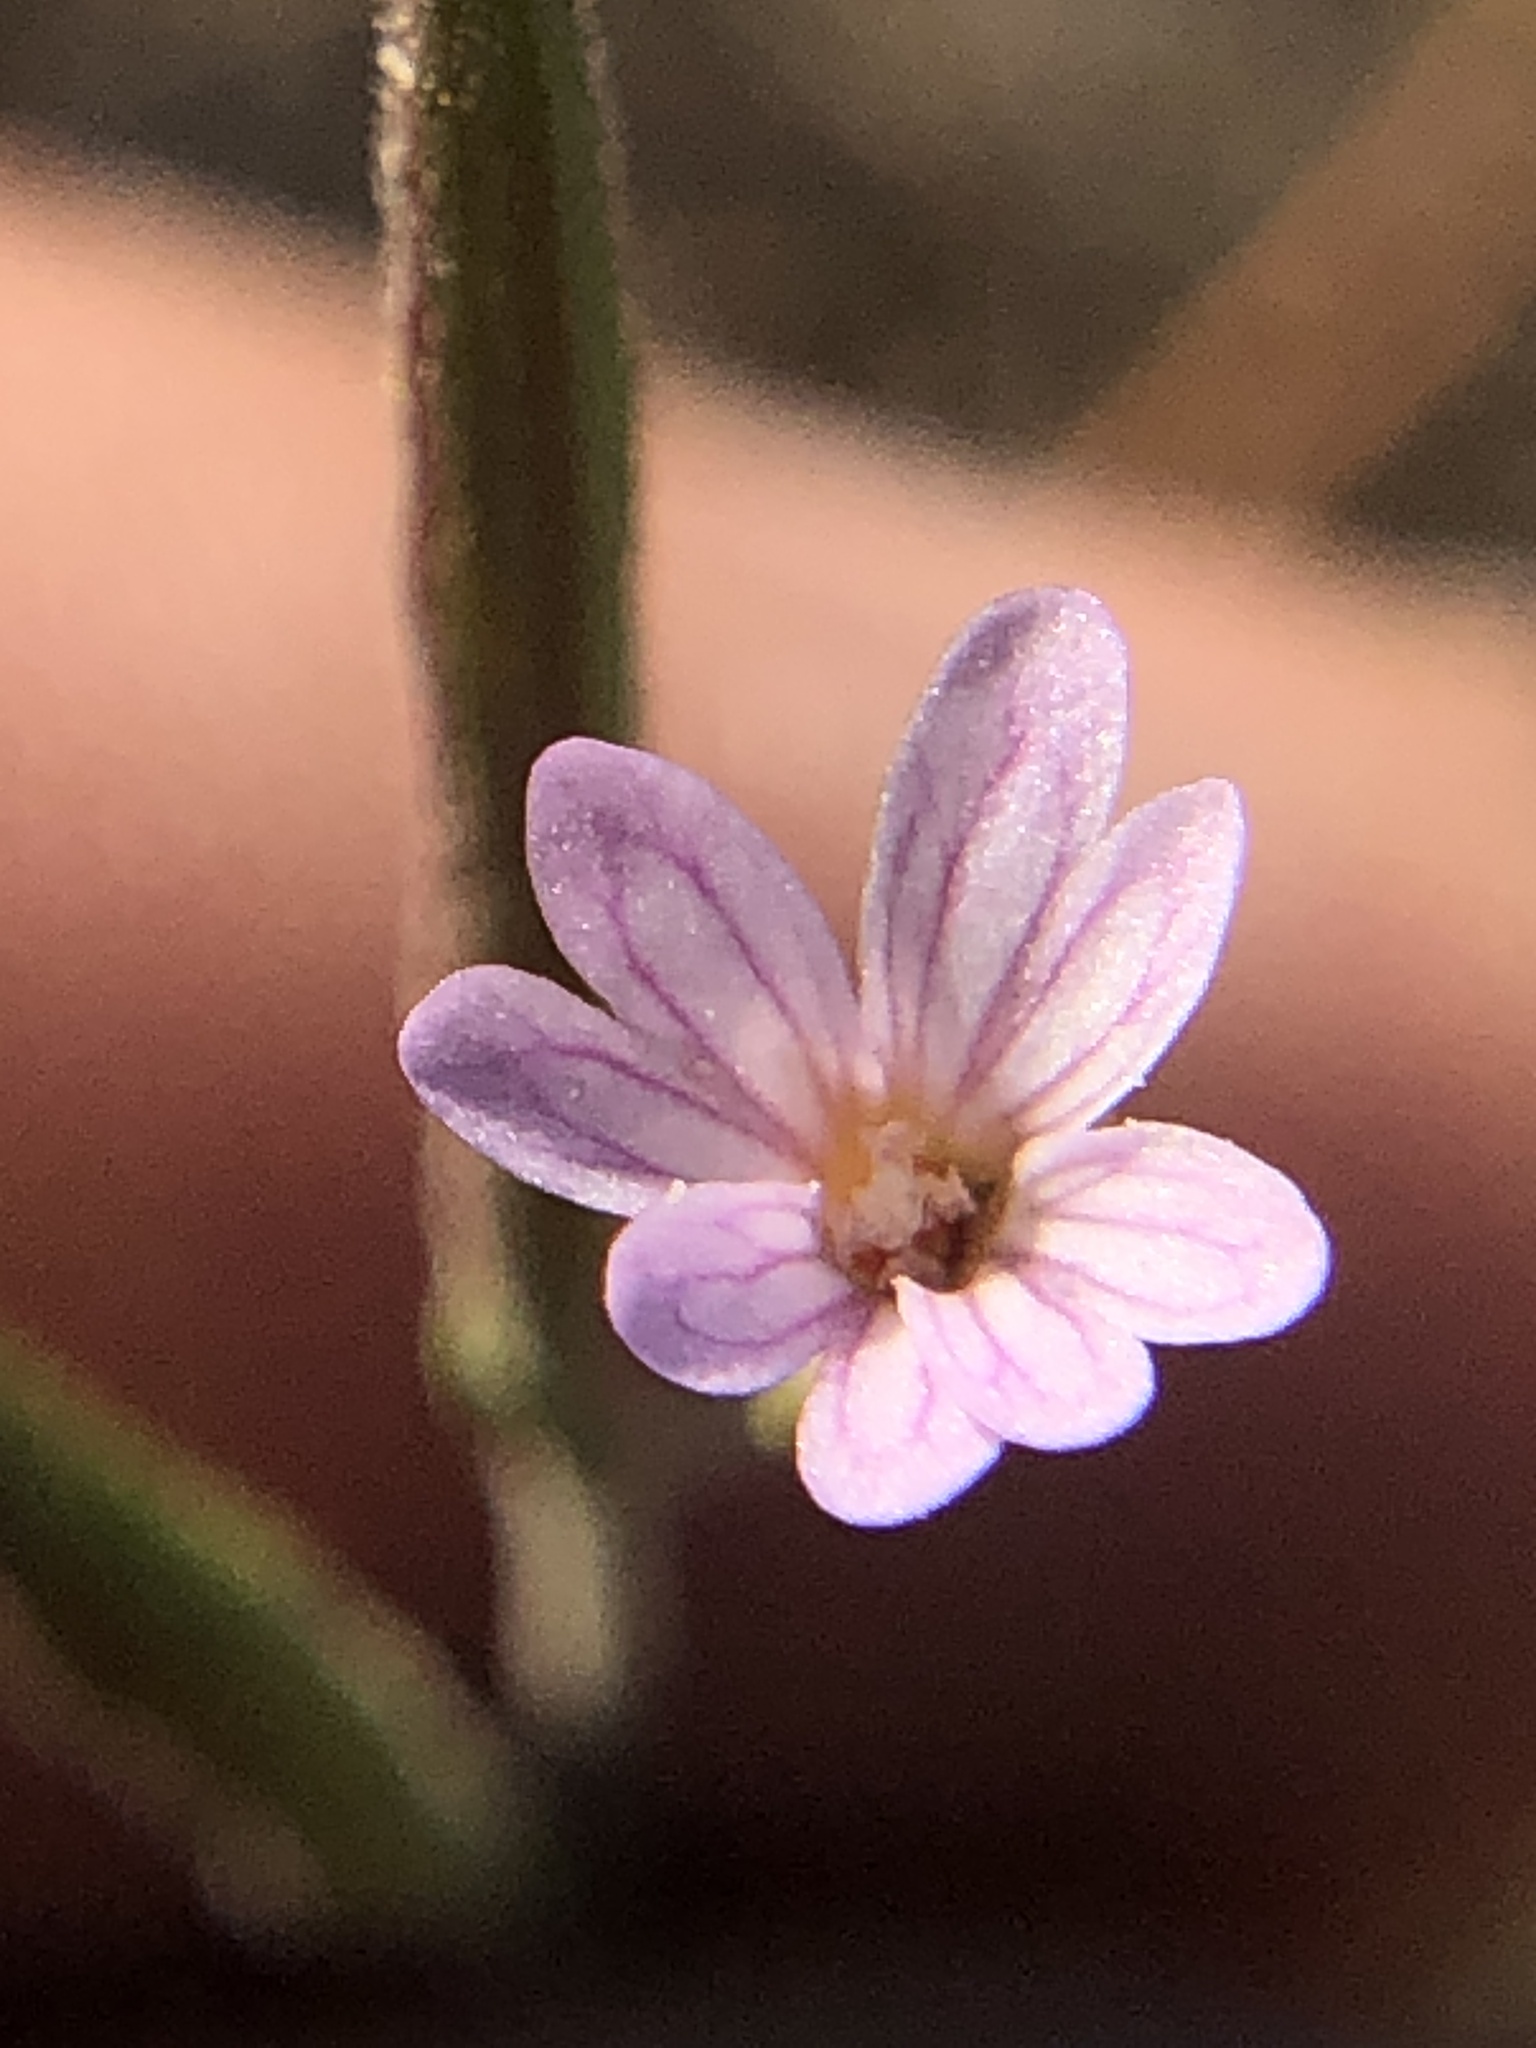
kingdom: Plantae
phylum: Tracheophyta
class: Magnoliopsida
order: Myrtales
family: Onagraceae
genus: Epilobium
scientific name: Epilobium brachycarpum
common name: Annual willowherb
